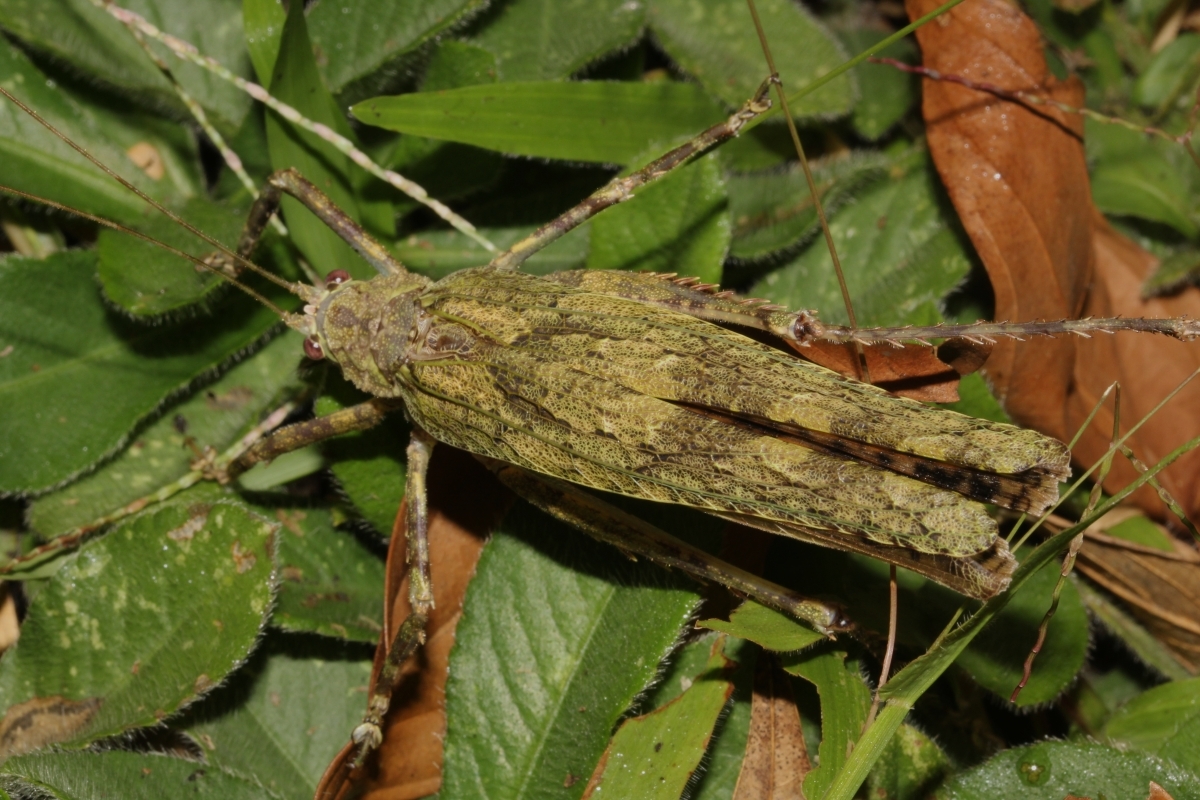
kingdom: Animalia
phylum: Arthropoda
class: Insecta
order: Orthoptera
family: Tettigoniidae
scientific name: Tettigoniidae
